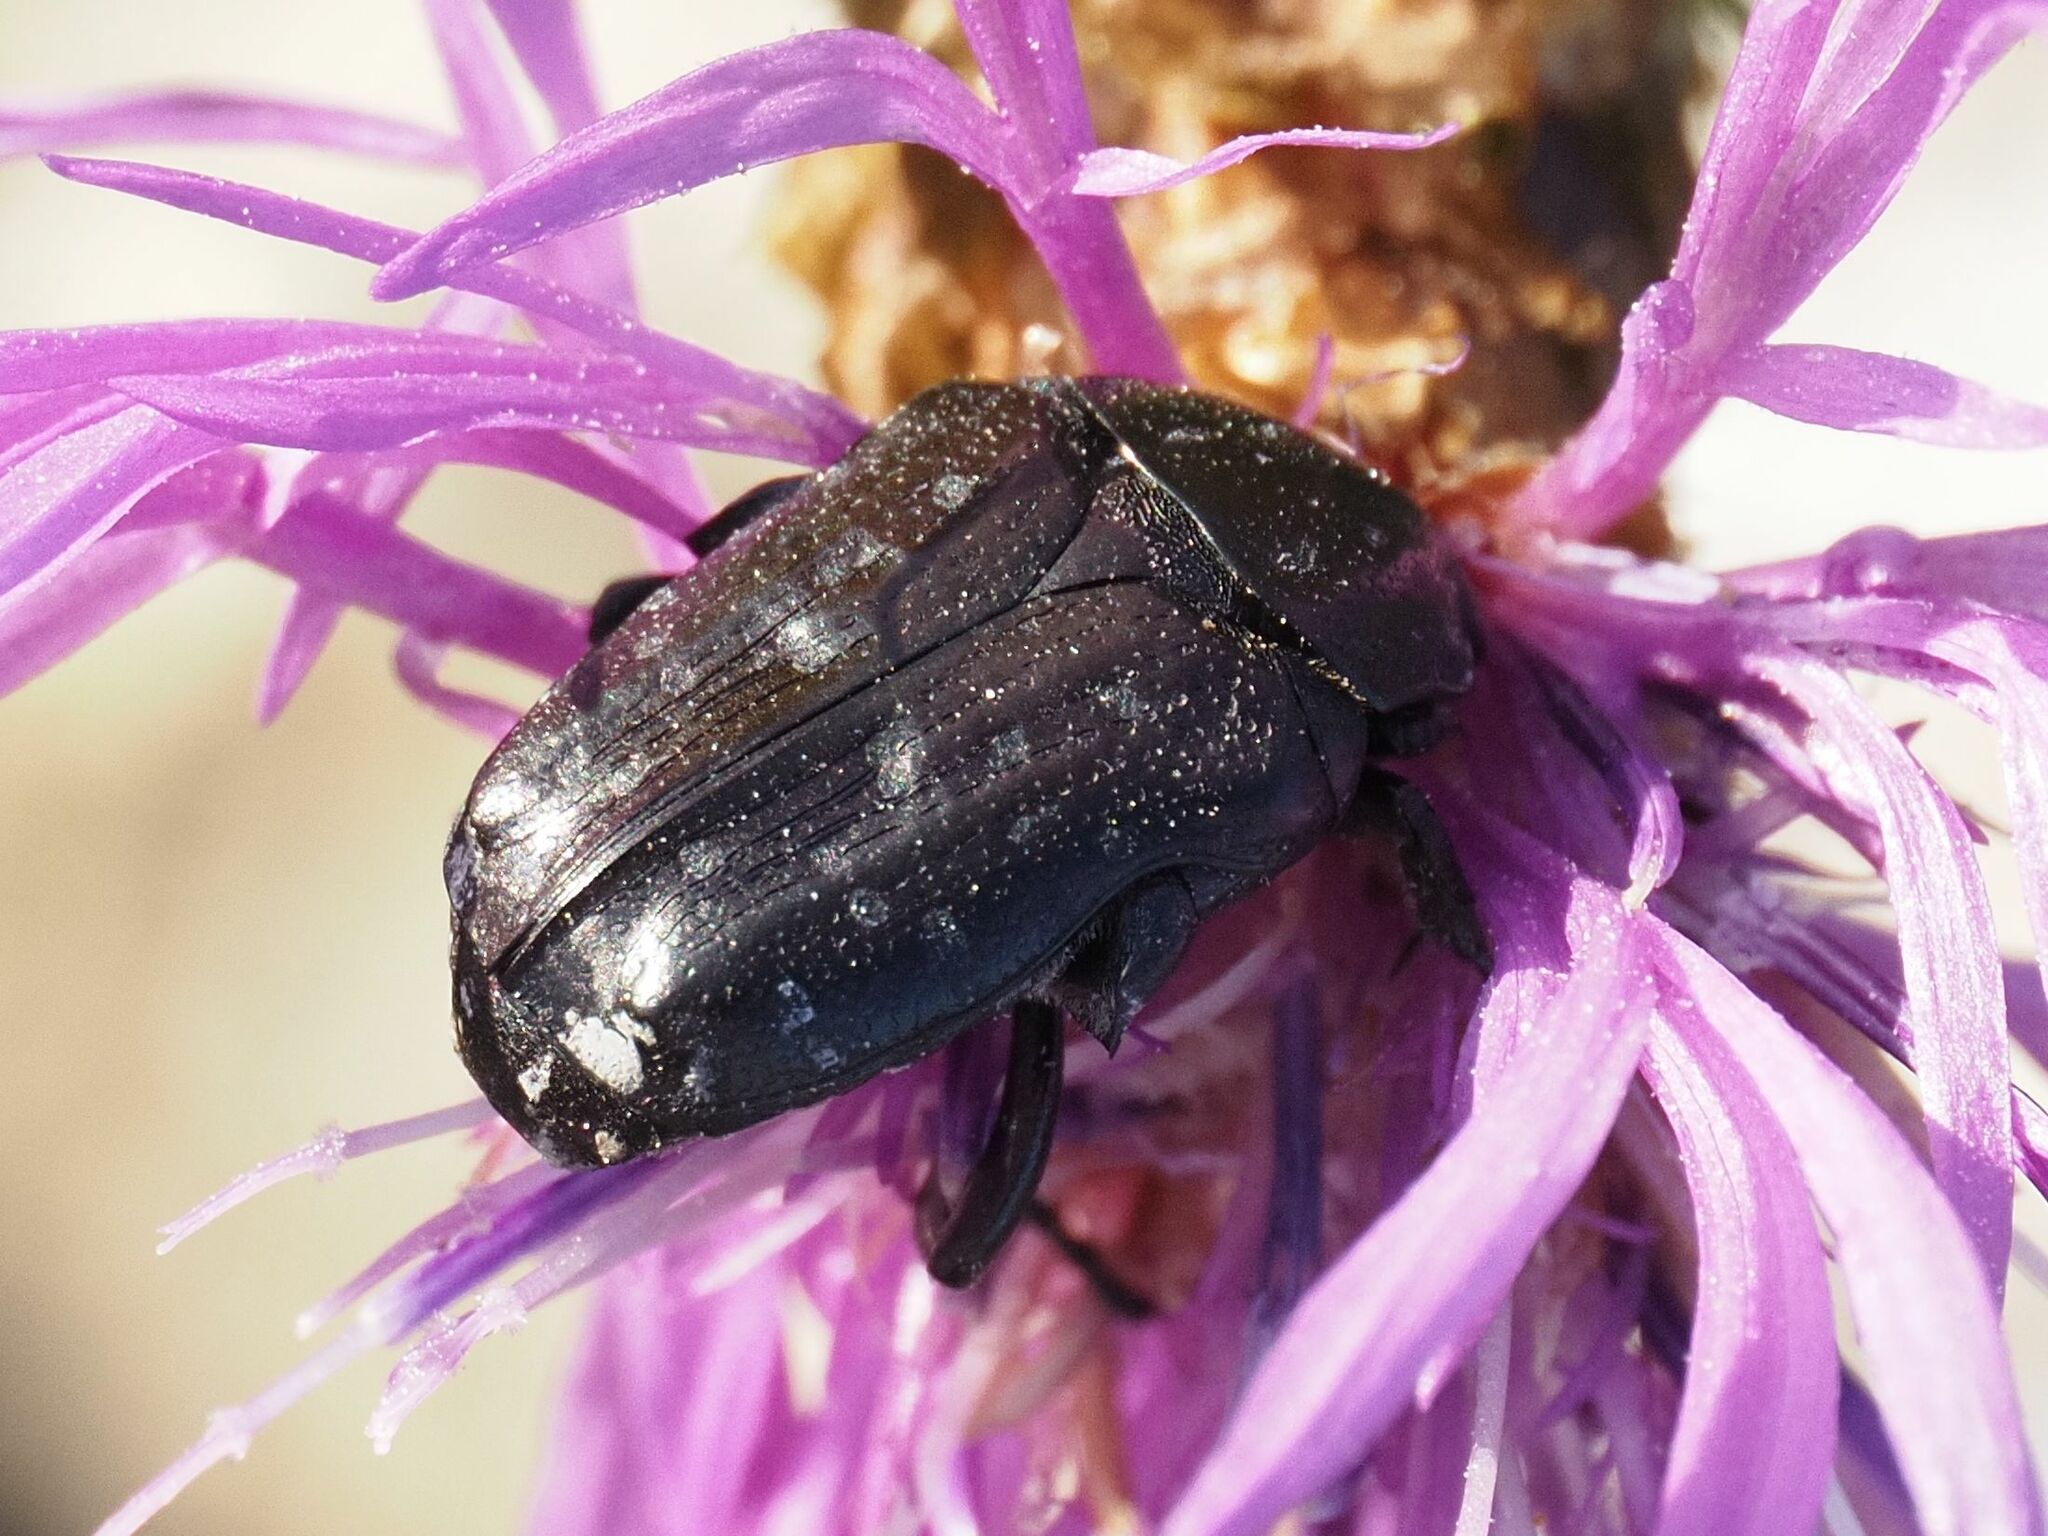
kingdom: Animalia
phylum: Arthropoda
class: Insecta
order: Coleoptera
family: Scarabaeidae
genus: Oxythyrea
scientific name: Oxythyrea funesta
